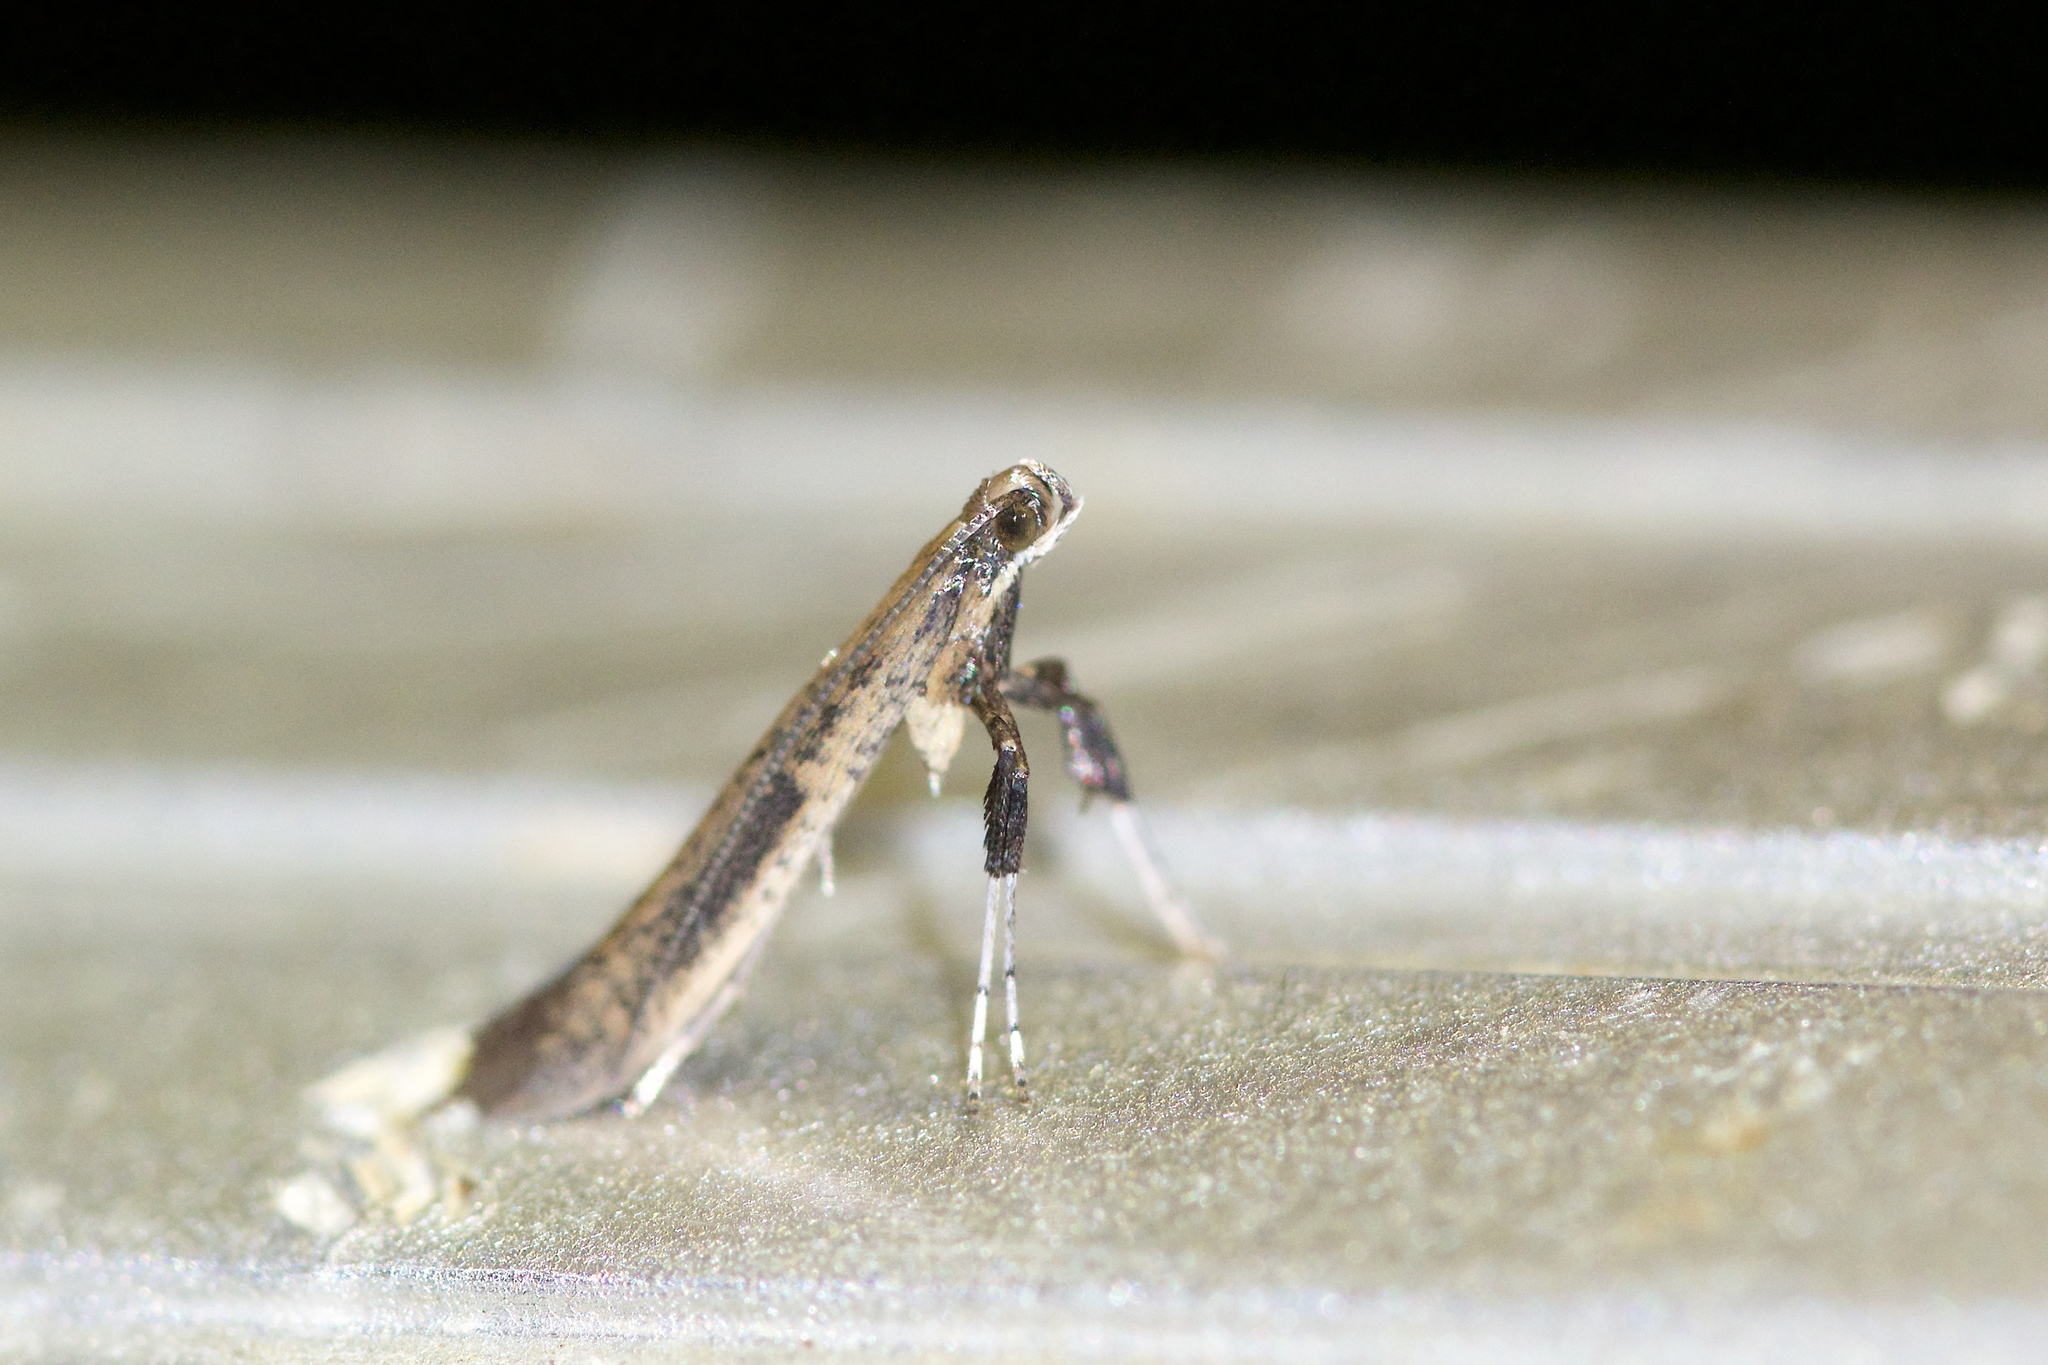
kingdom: Animalia
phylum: Arthropoda
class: Insecta
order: Lepidoptera
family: Gracillariidae
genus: Caloptilia
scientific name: Caloptilia hypericella
